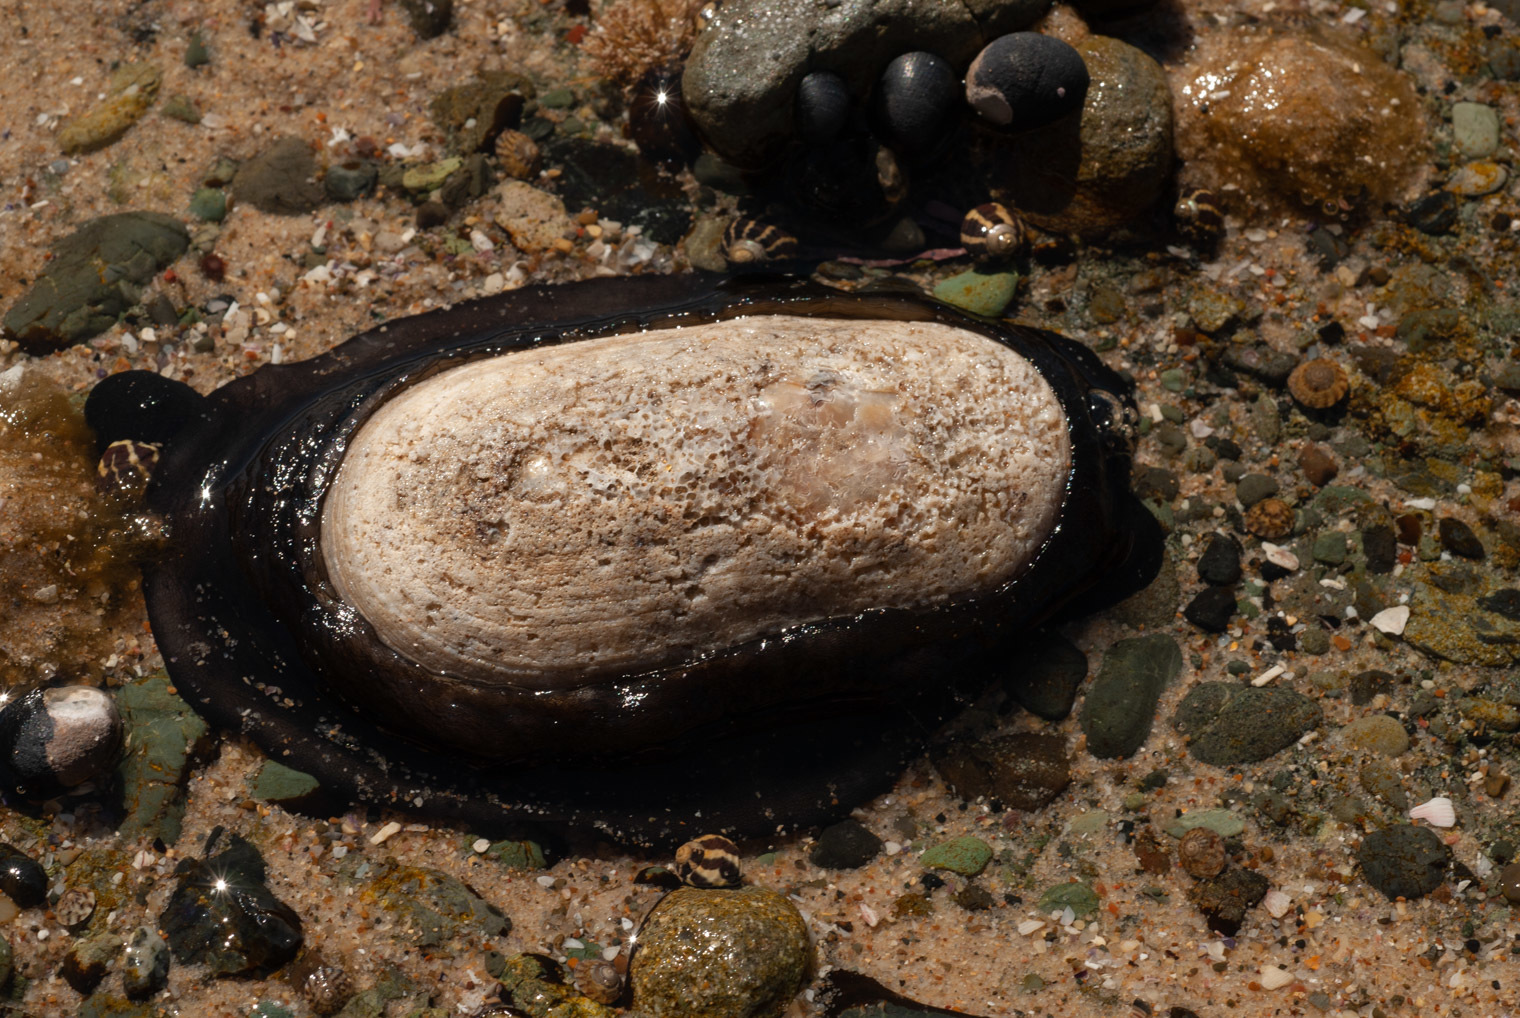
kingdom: Animalia
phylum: Mollusca
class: Gastropoda
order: Lepetellida
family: Fissurellidae
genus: Scutus
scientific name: Scutus antipodes
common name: Duckbill shell
